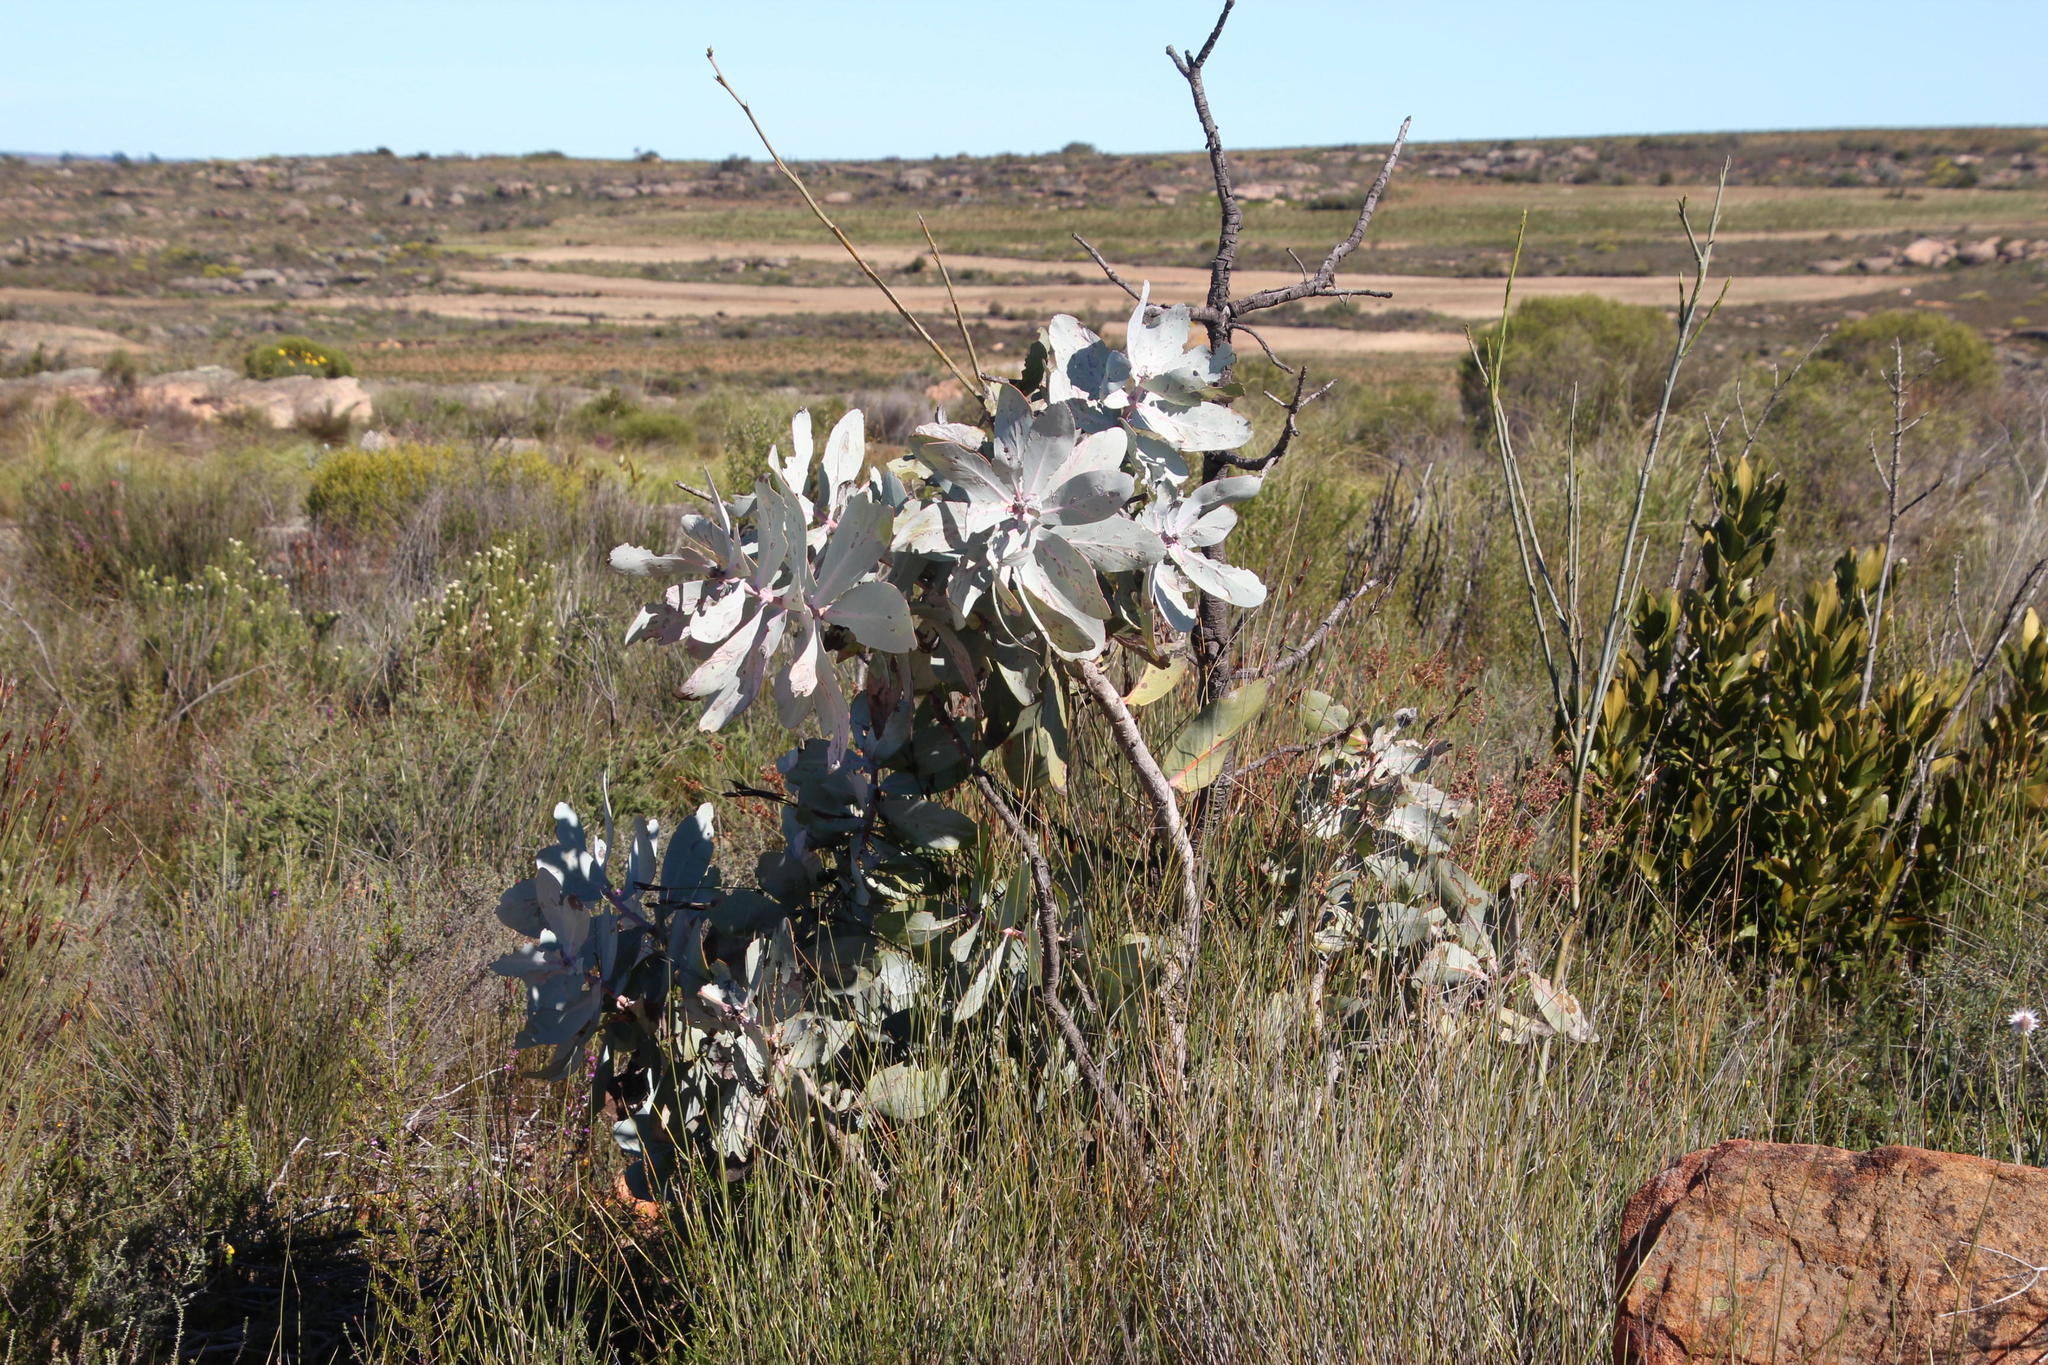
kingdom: Plantae
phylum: Tracheophyta
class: Magnoliopsida
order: Proteales
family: Proteaceae
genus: Protea
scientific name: Protea nitida
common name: Tree protea
